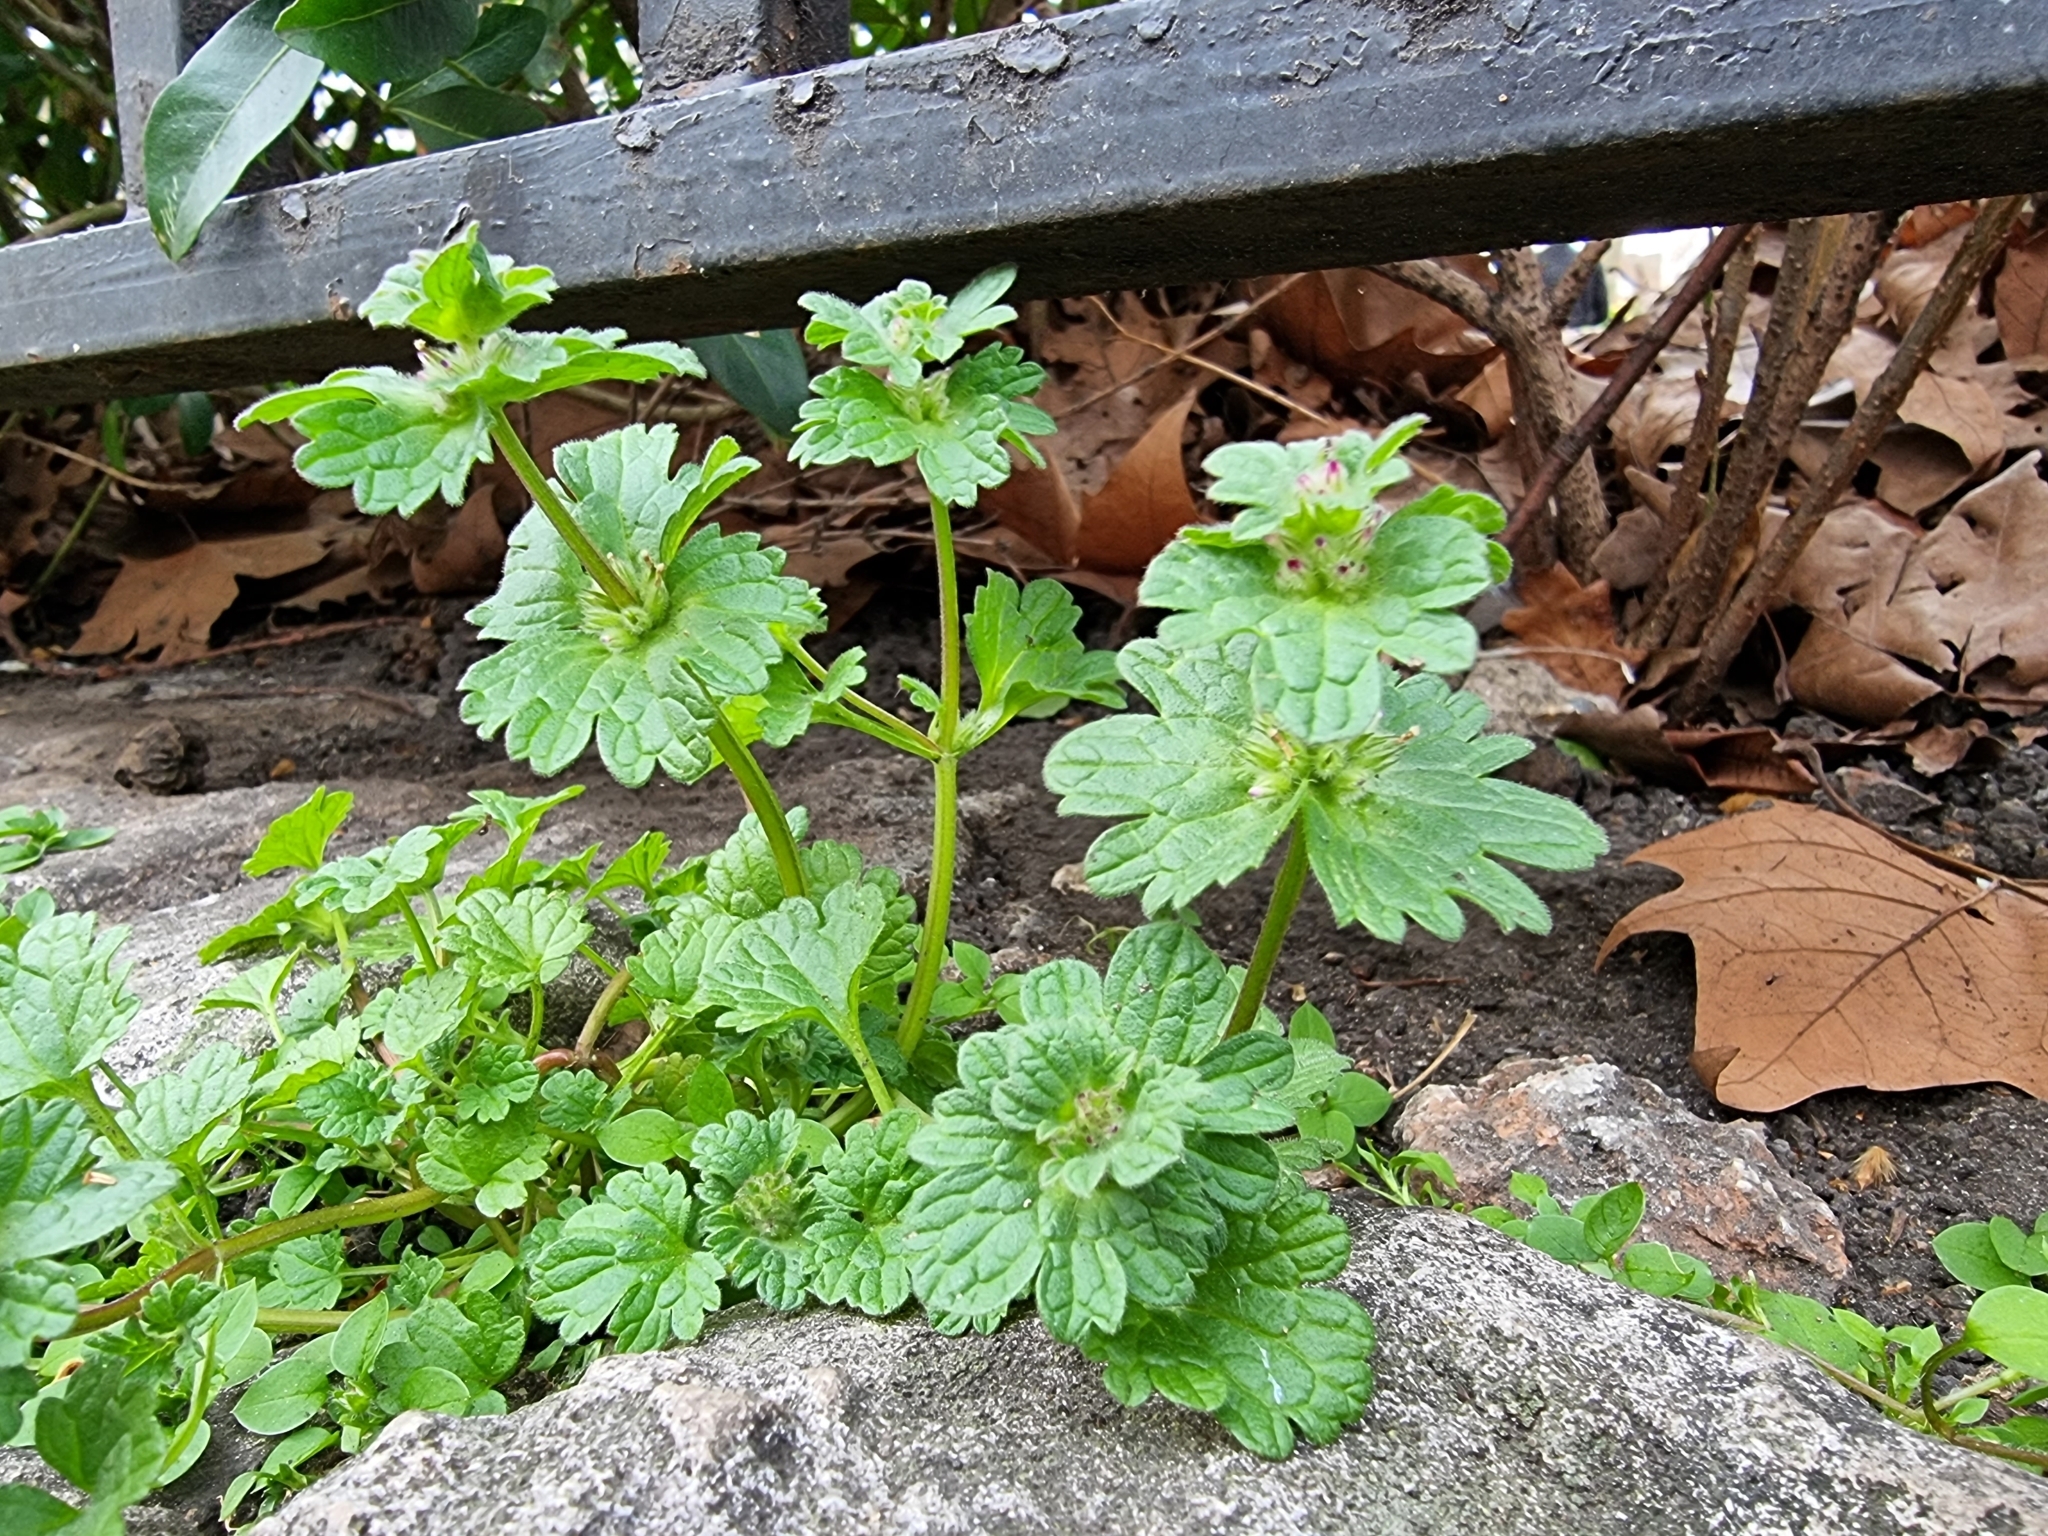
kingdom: Plantae
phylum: Tracheophyta
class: Magnoliopsida
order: Lamiales
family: Lamiaceae
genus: Lamium
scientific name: Lamium amplexicaule
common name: Henbit dead-nettle
